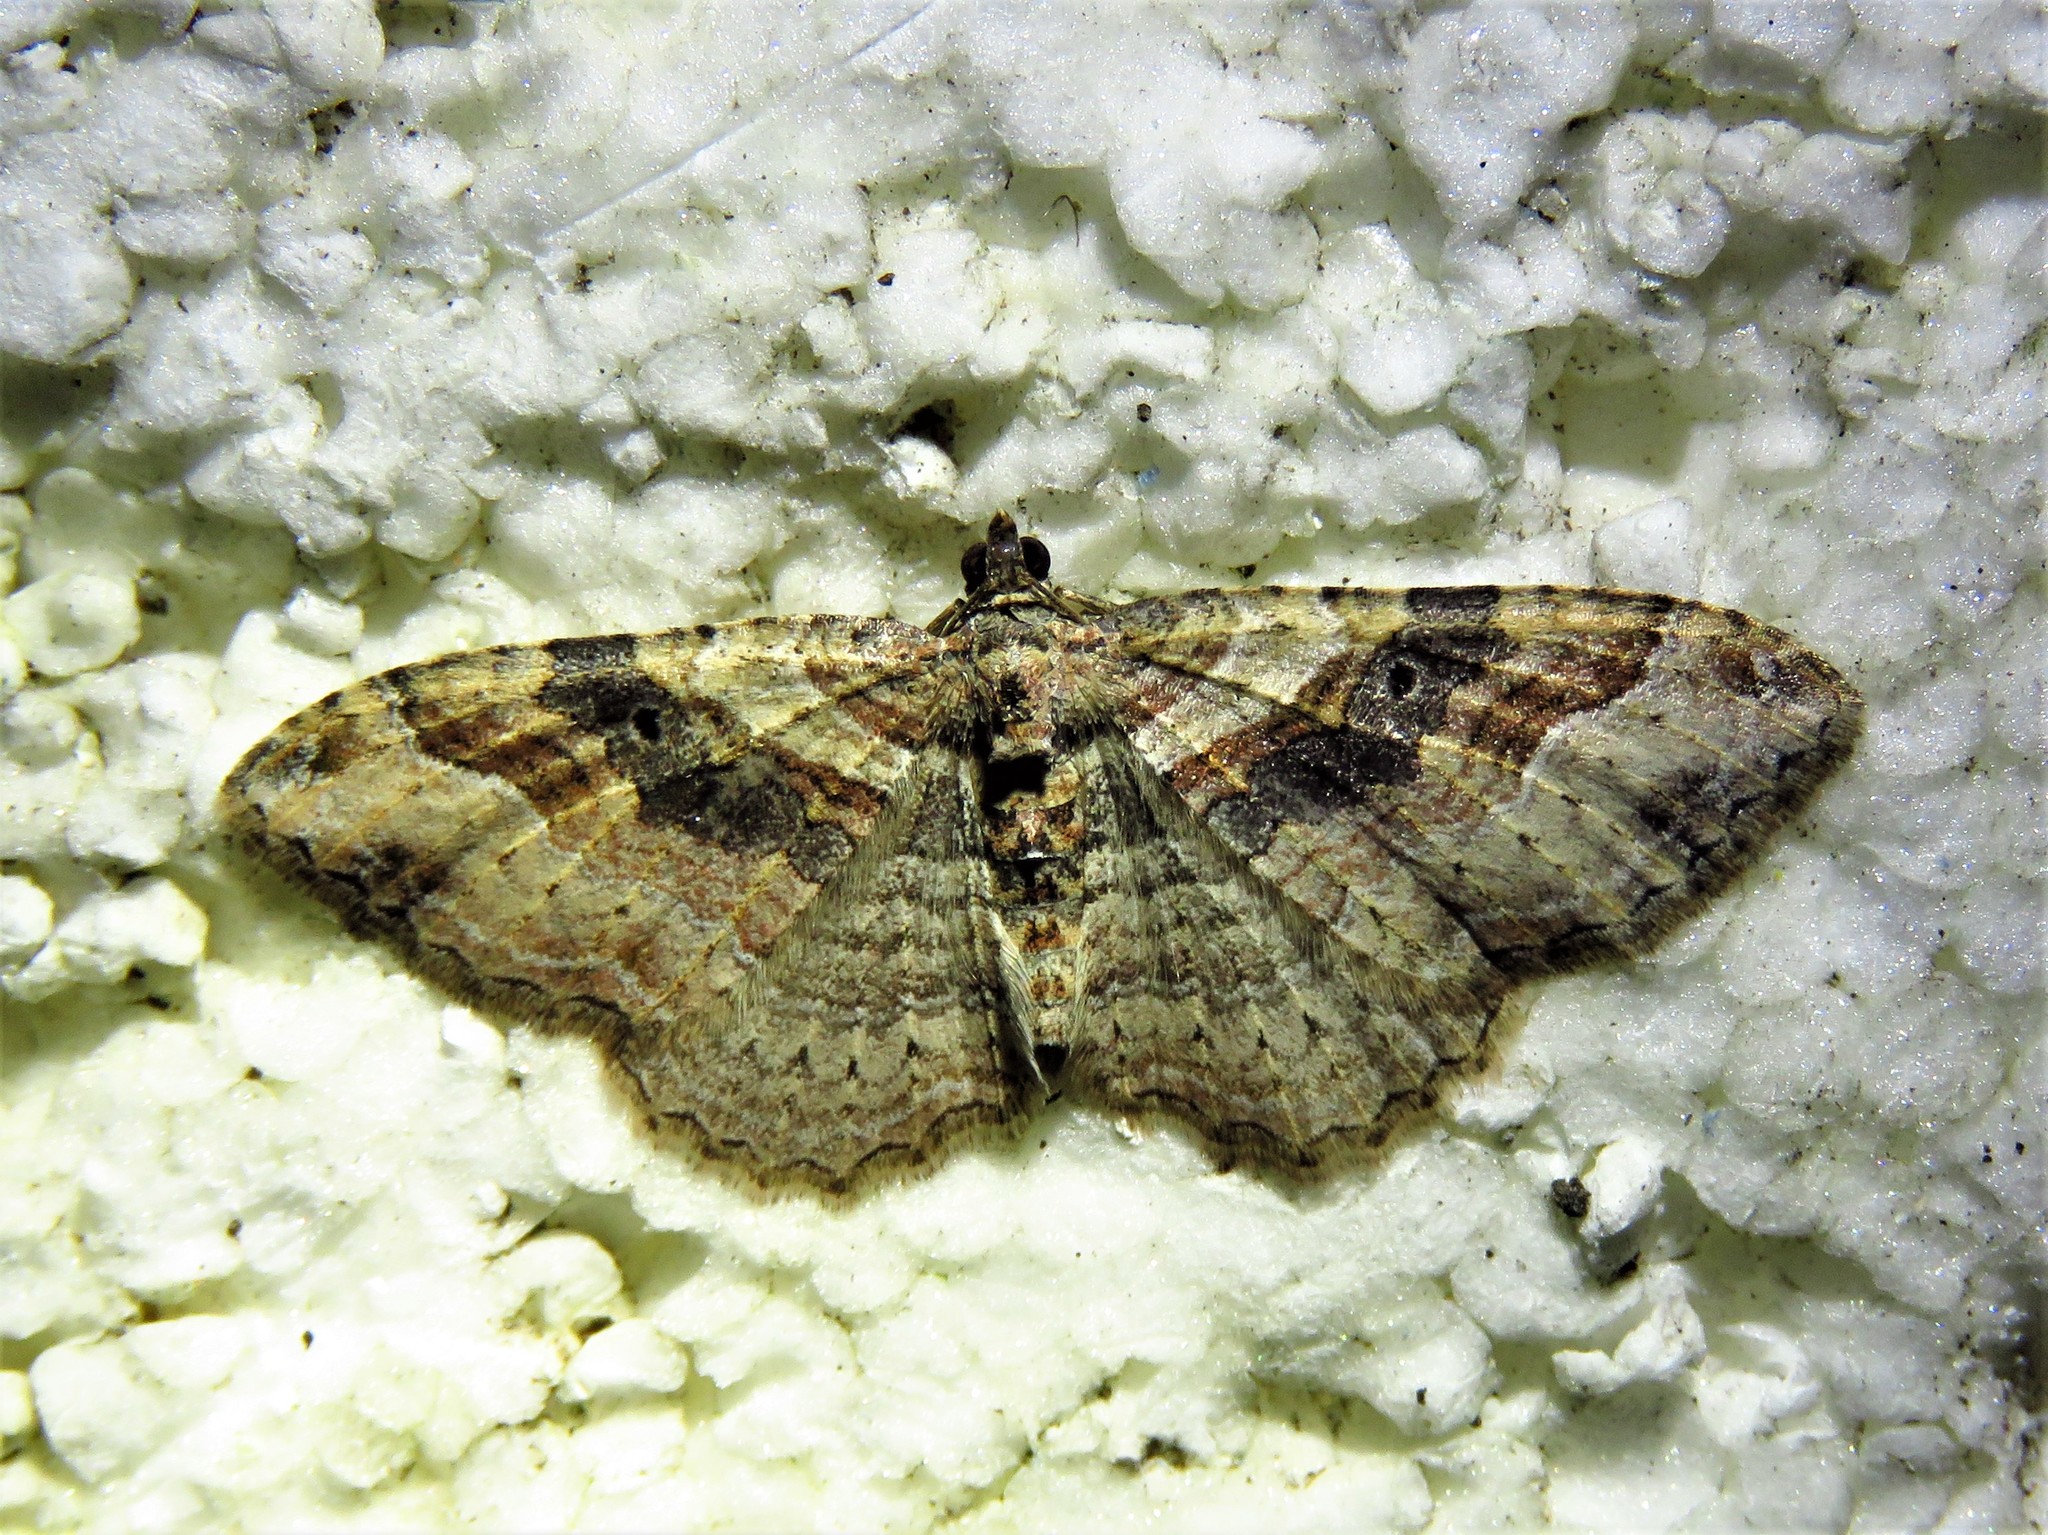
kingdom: Animalia
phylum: Arthropoda
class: Insecta
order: Lepidoptera
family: Geometridae
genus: Costaconvexa
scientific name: Costaconvexa centrostrigaria
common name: Bent-line carpet
